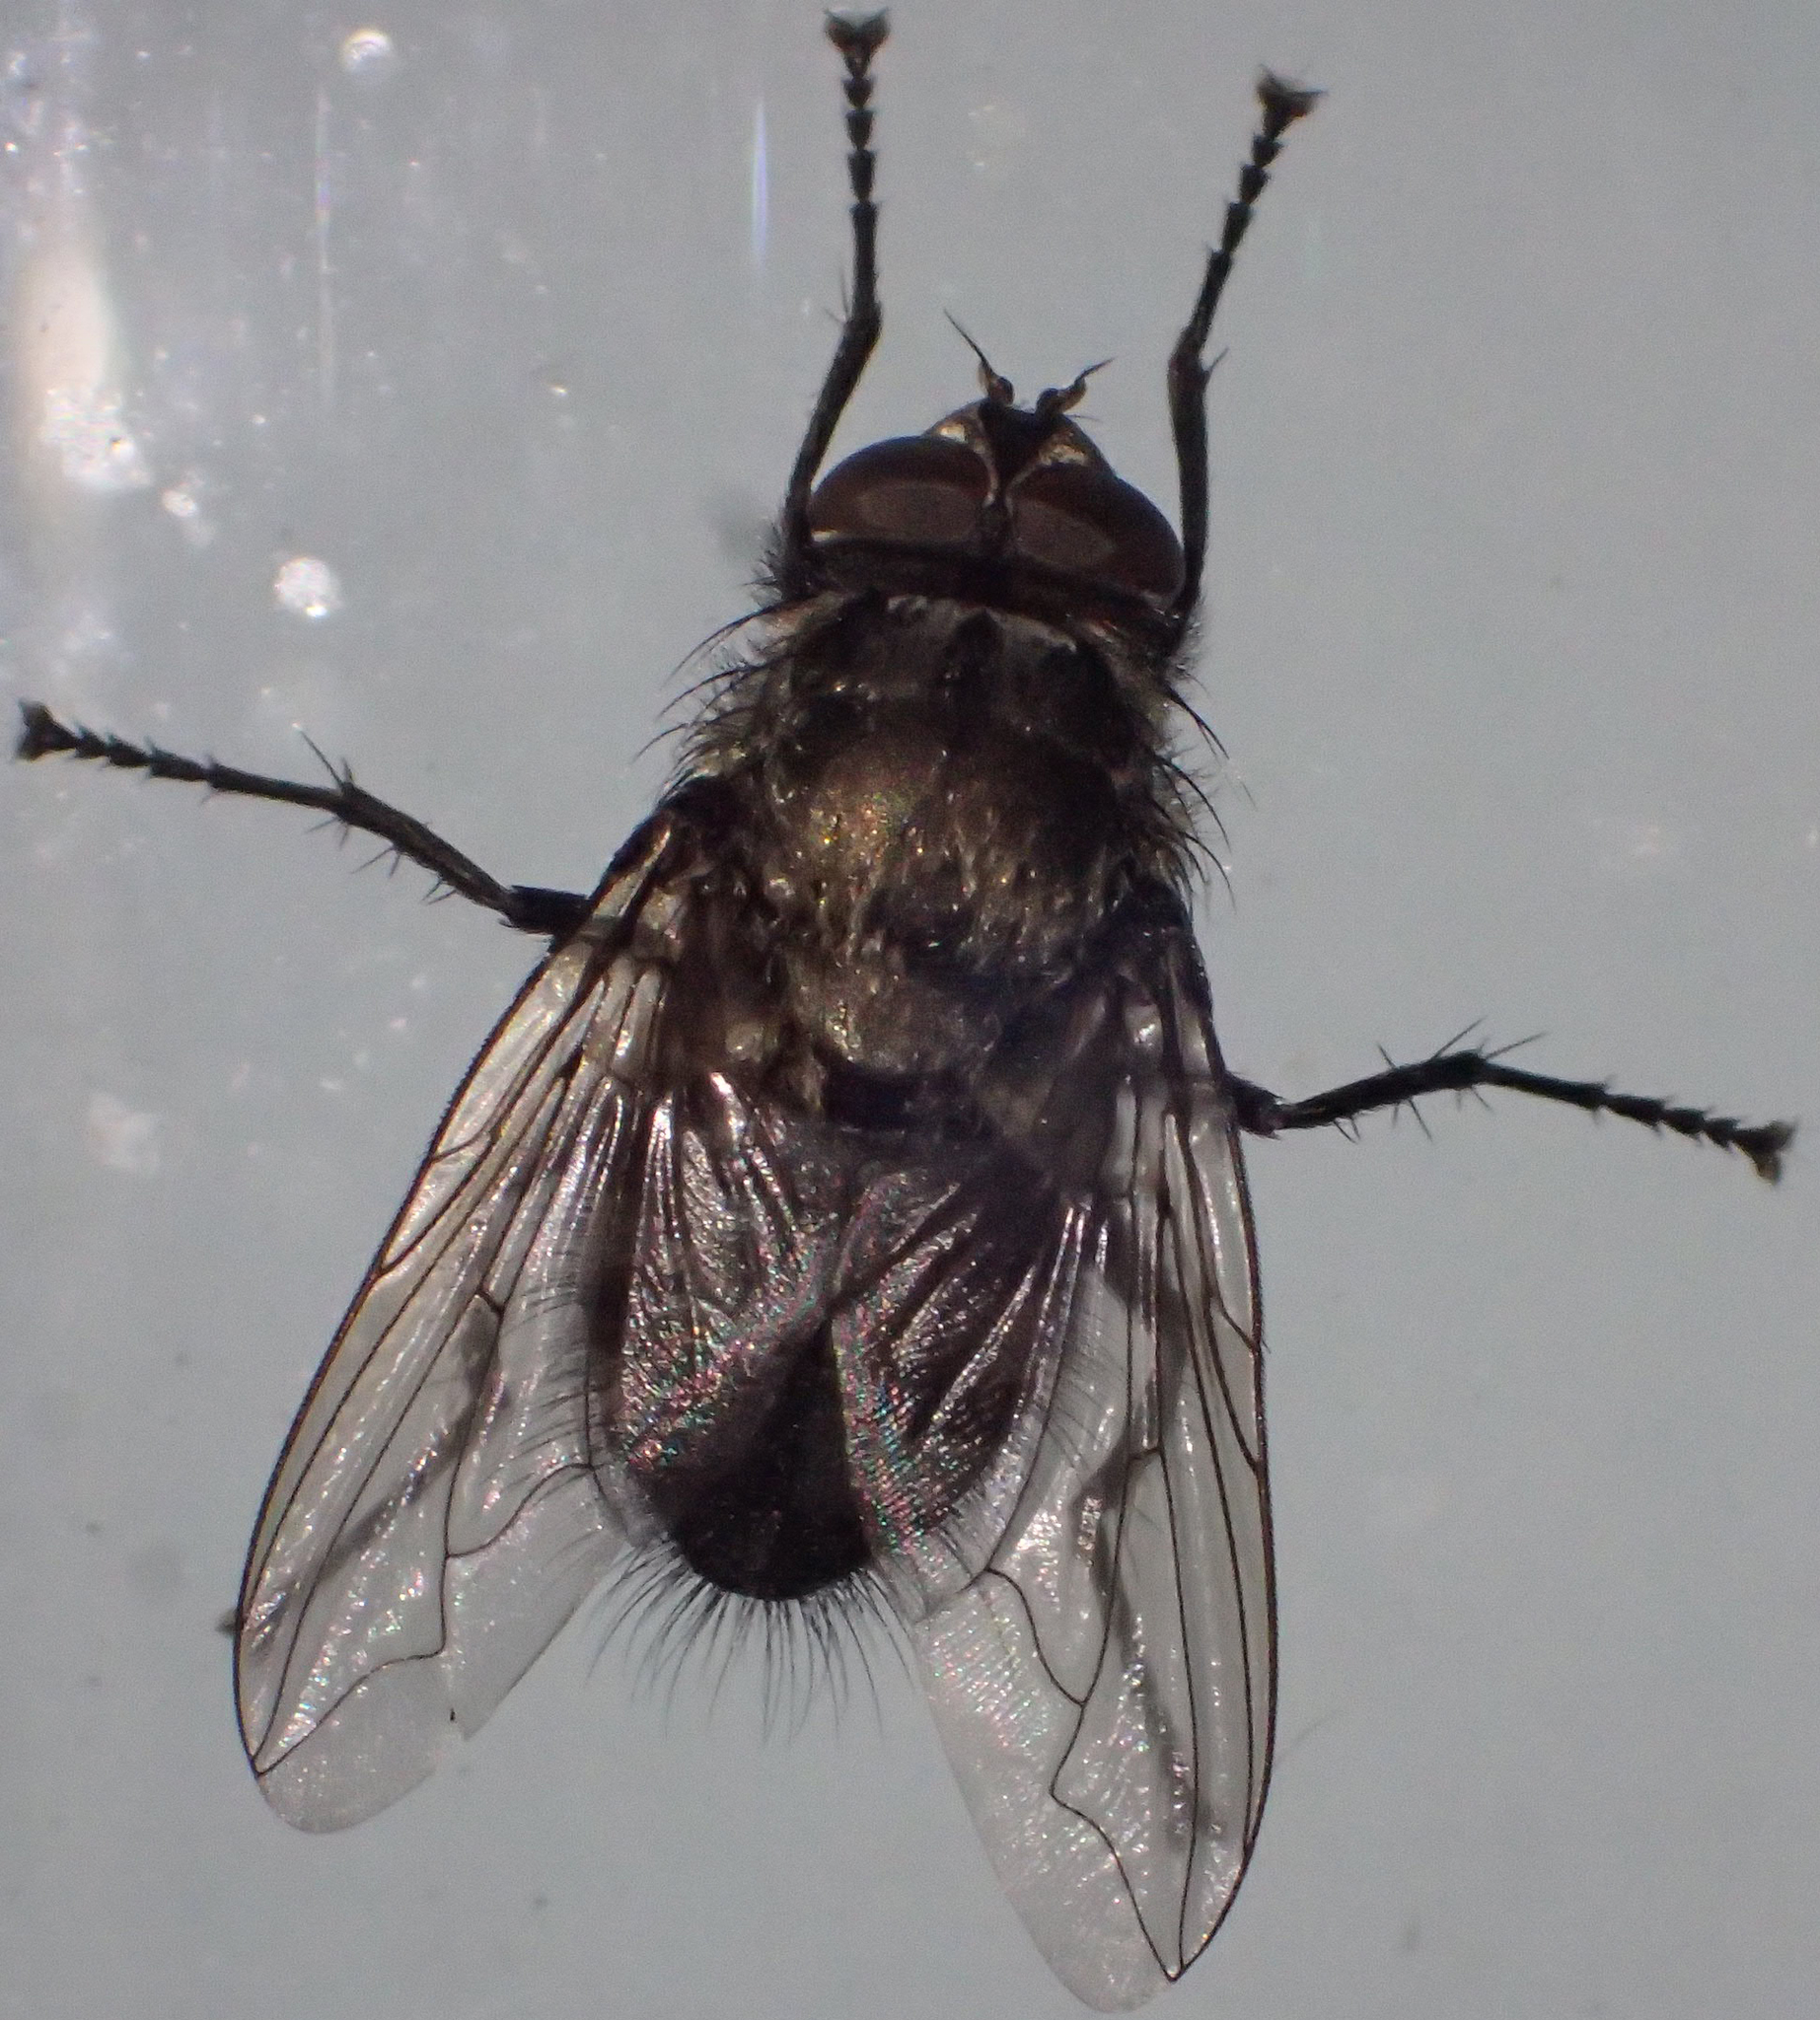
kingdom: Animalia
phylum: Arthropoda
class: Insecta
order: Diptera
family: Polleniidae
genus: Pollenia
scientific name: Pollenia vagabunda
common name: Vagabund cluster fly
